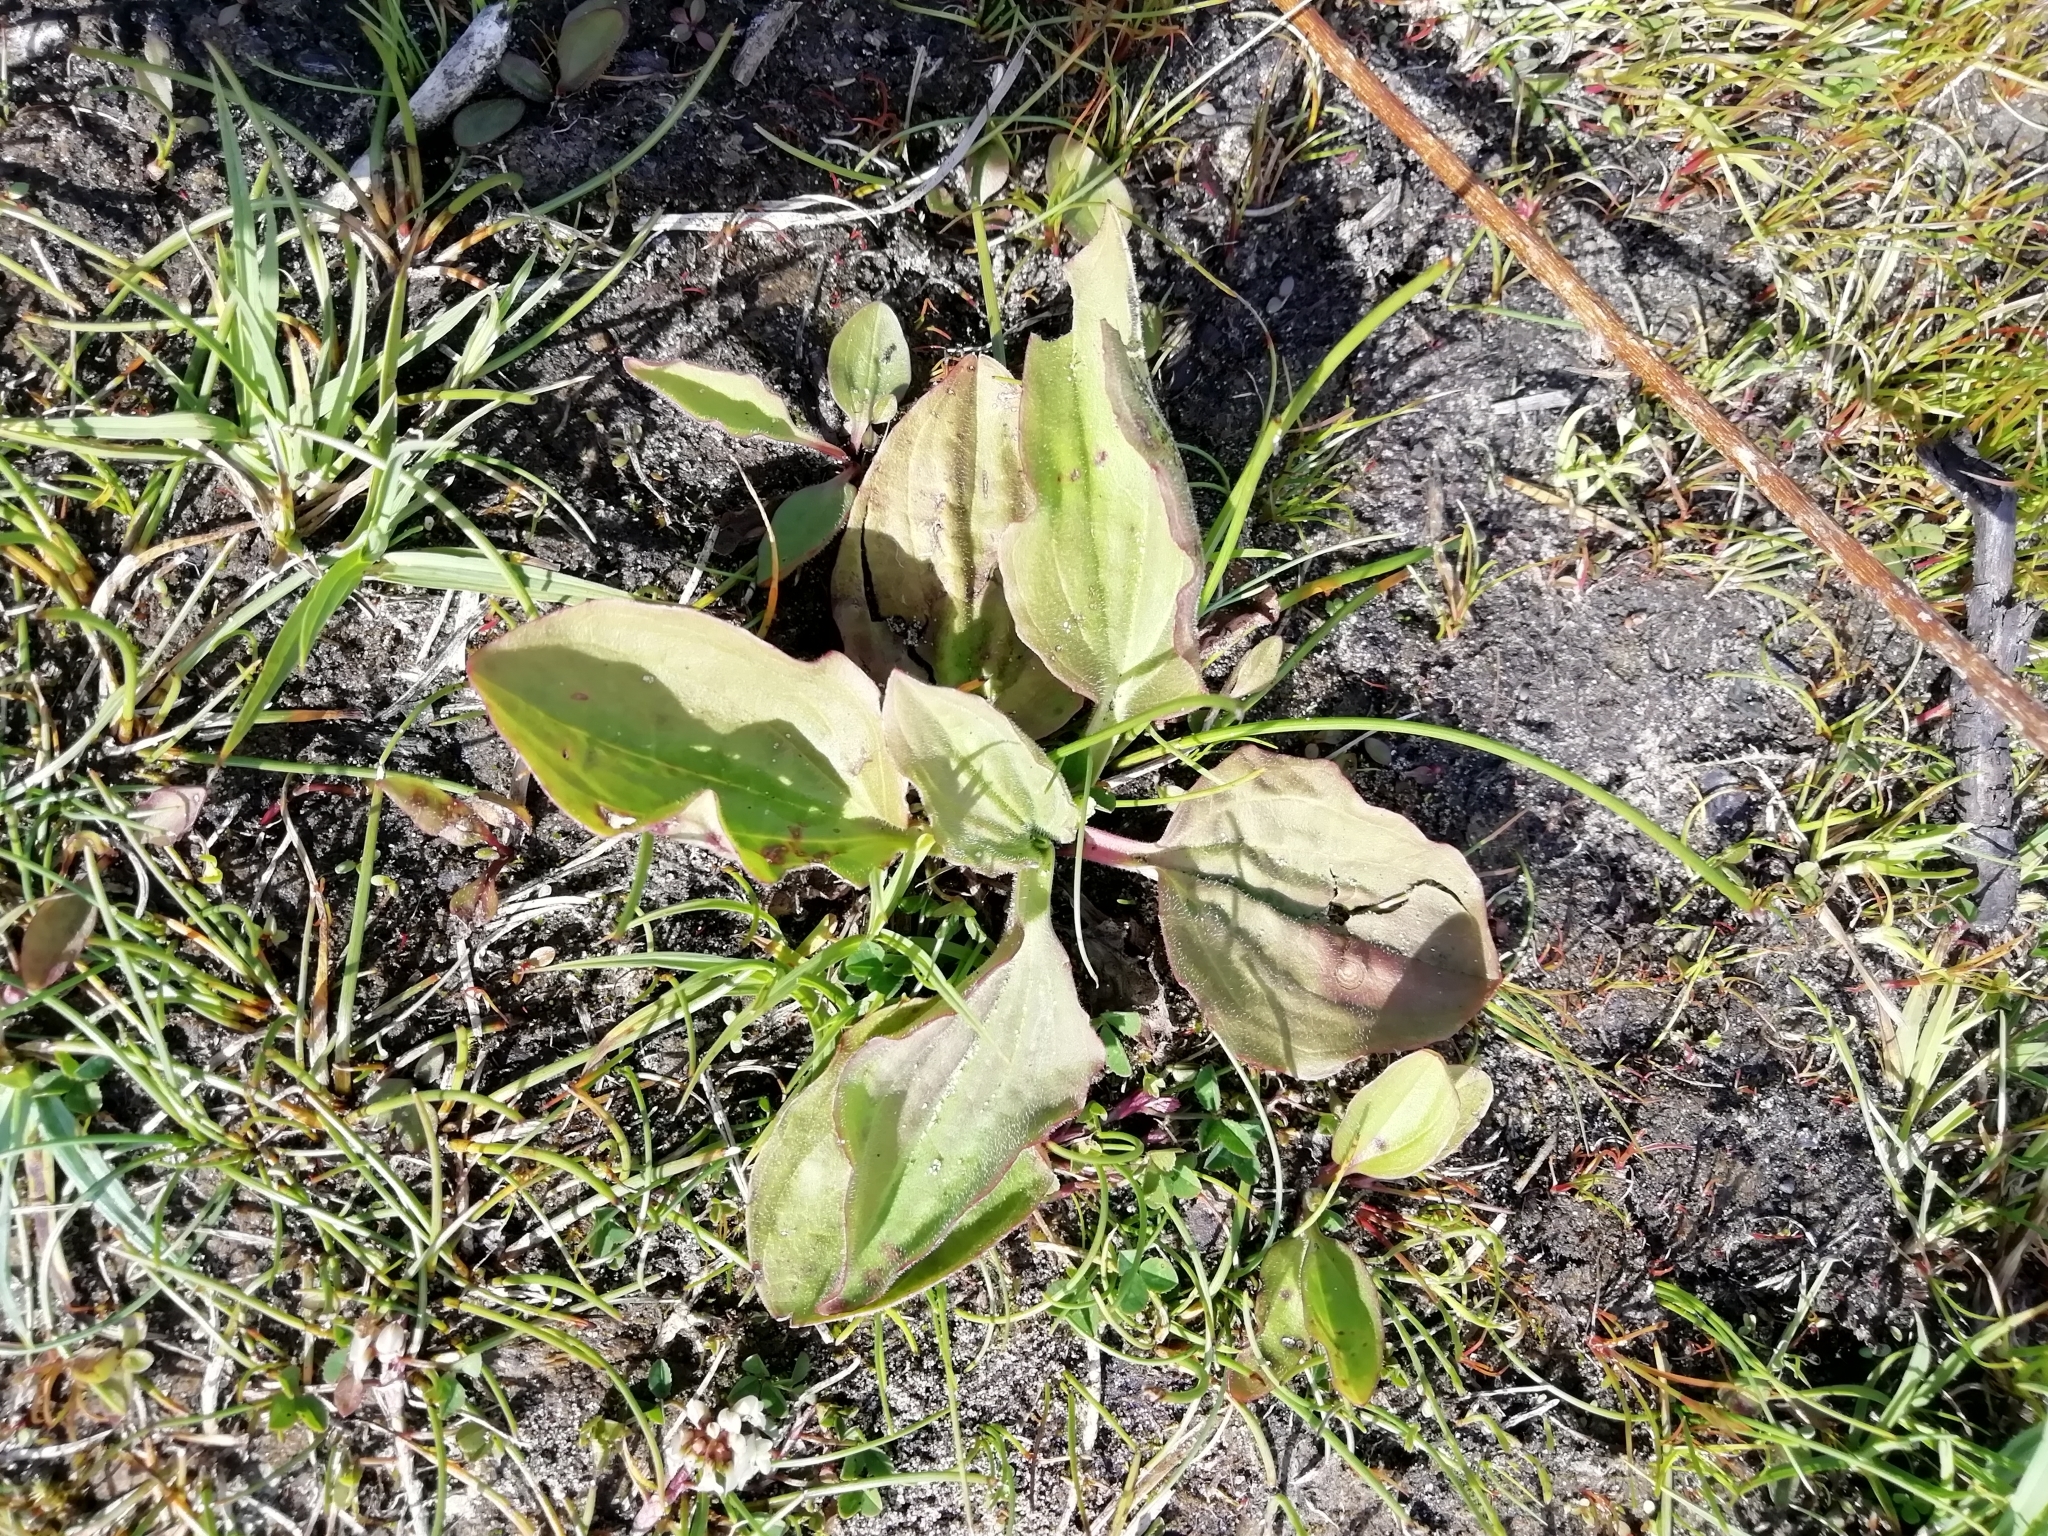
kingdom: Plantae
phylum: Tracheophyta
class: Magnoliopsida
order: Lamiales
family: Plantaginaceae
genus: Plantago
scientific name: Plantago major
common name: Common plantain
